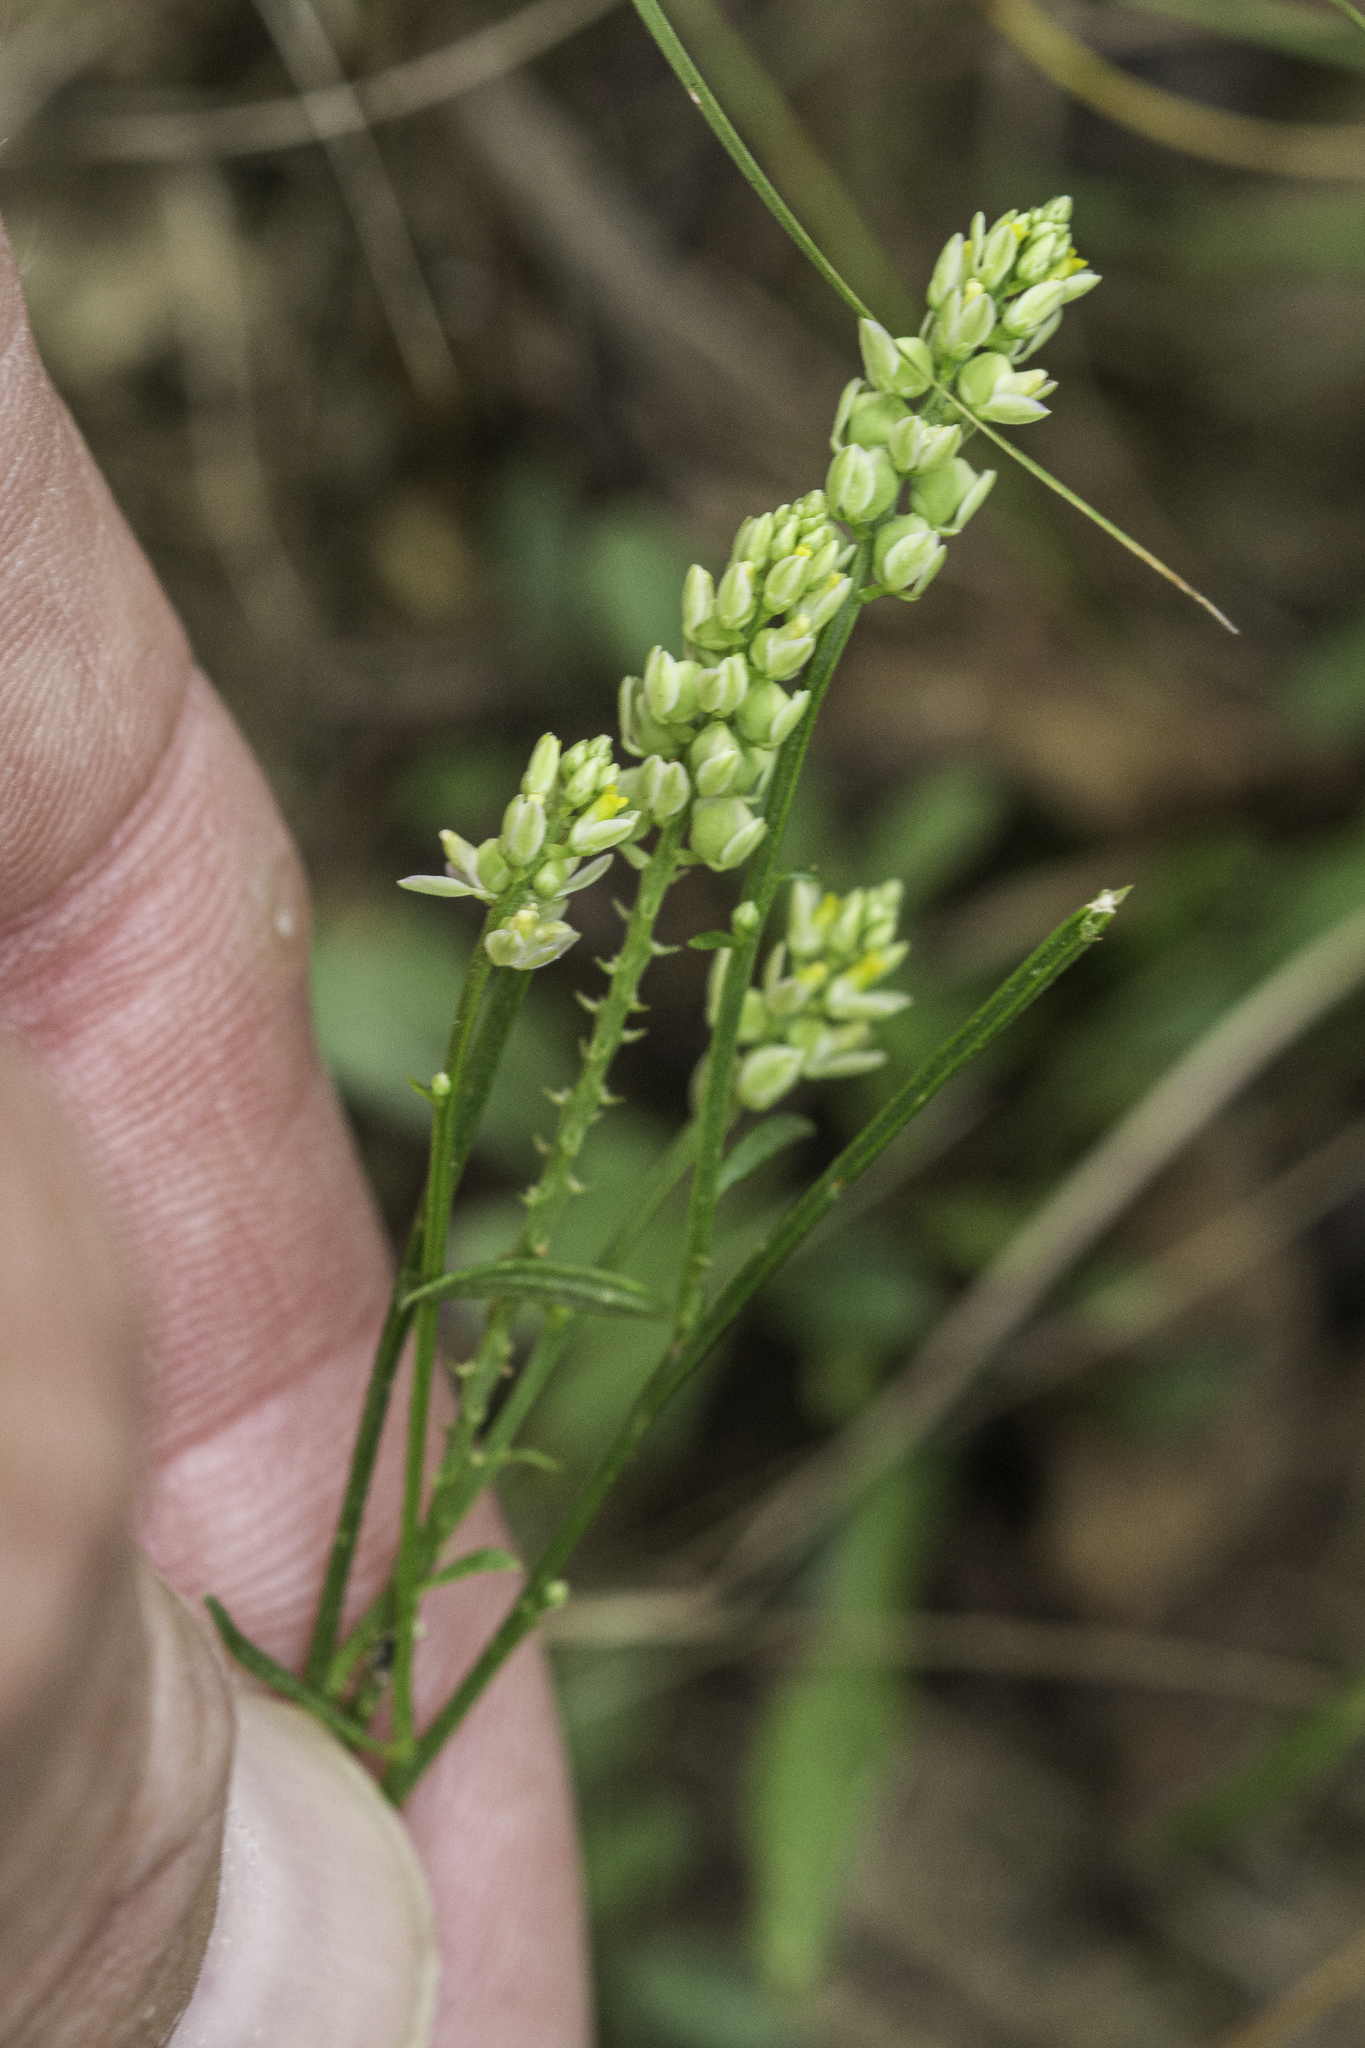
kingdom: Plantae
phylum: Tracheophyta
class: Magnoliopsida
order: Fabales
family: Polygalaceae
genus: Polygala
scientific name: Polygala nuttallii
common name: Nuttall's milkwort
